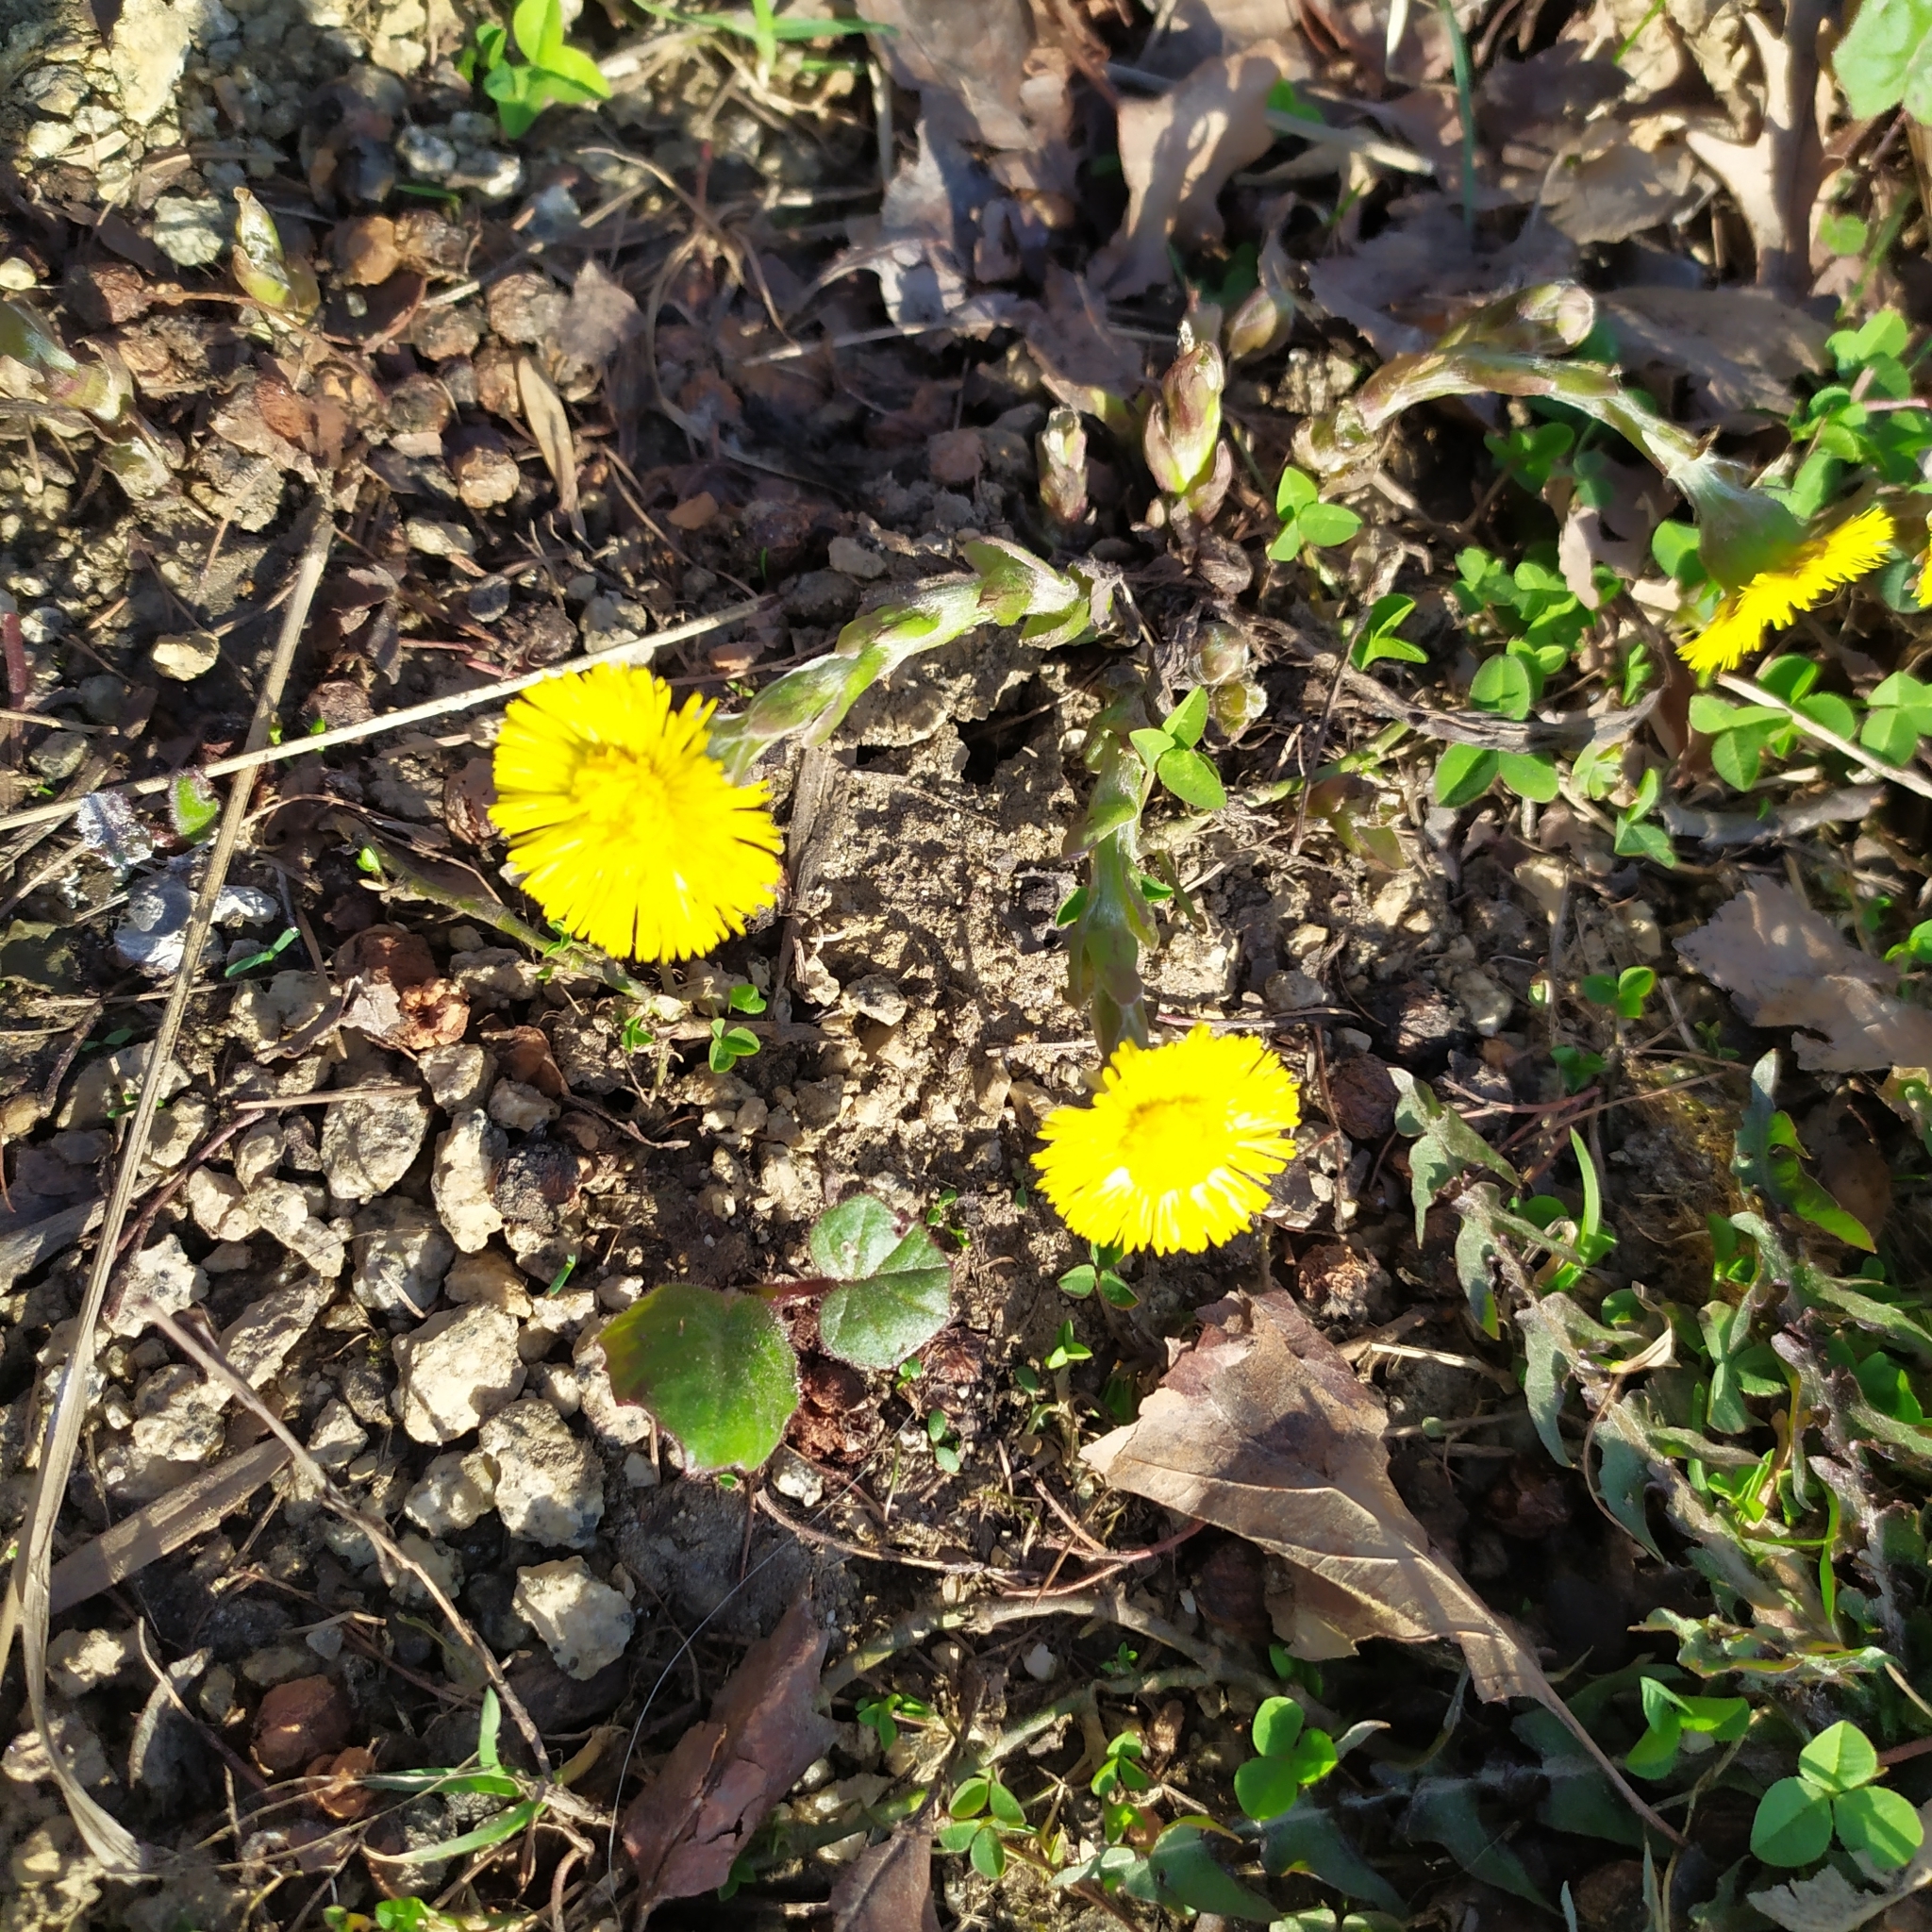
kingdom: Plantae
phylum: Tracheophyta
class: Magnoliopsida
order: Asterales
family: Asteraceae
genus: Tussilago
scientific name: Tussilago farfara
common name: Coltsfoot
